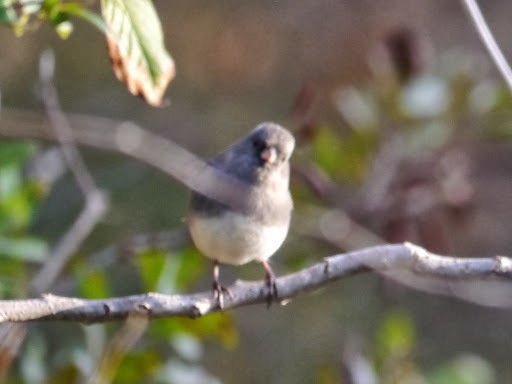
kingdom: Animalia
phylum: Chordata
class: Aves
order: Passeriformes
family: Passerellidae
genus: Junco
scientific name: Junco hyemalis
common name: Dark-eyed junco
